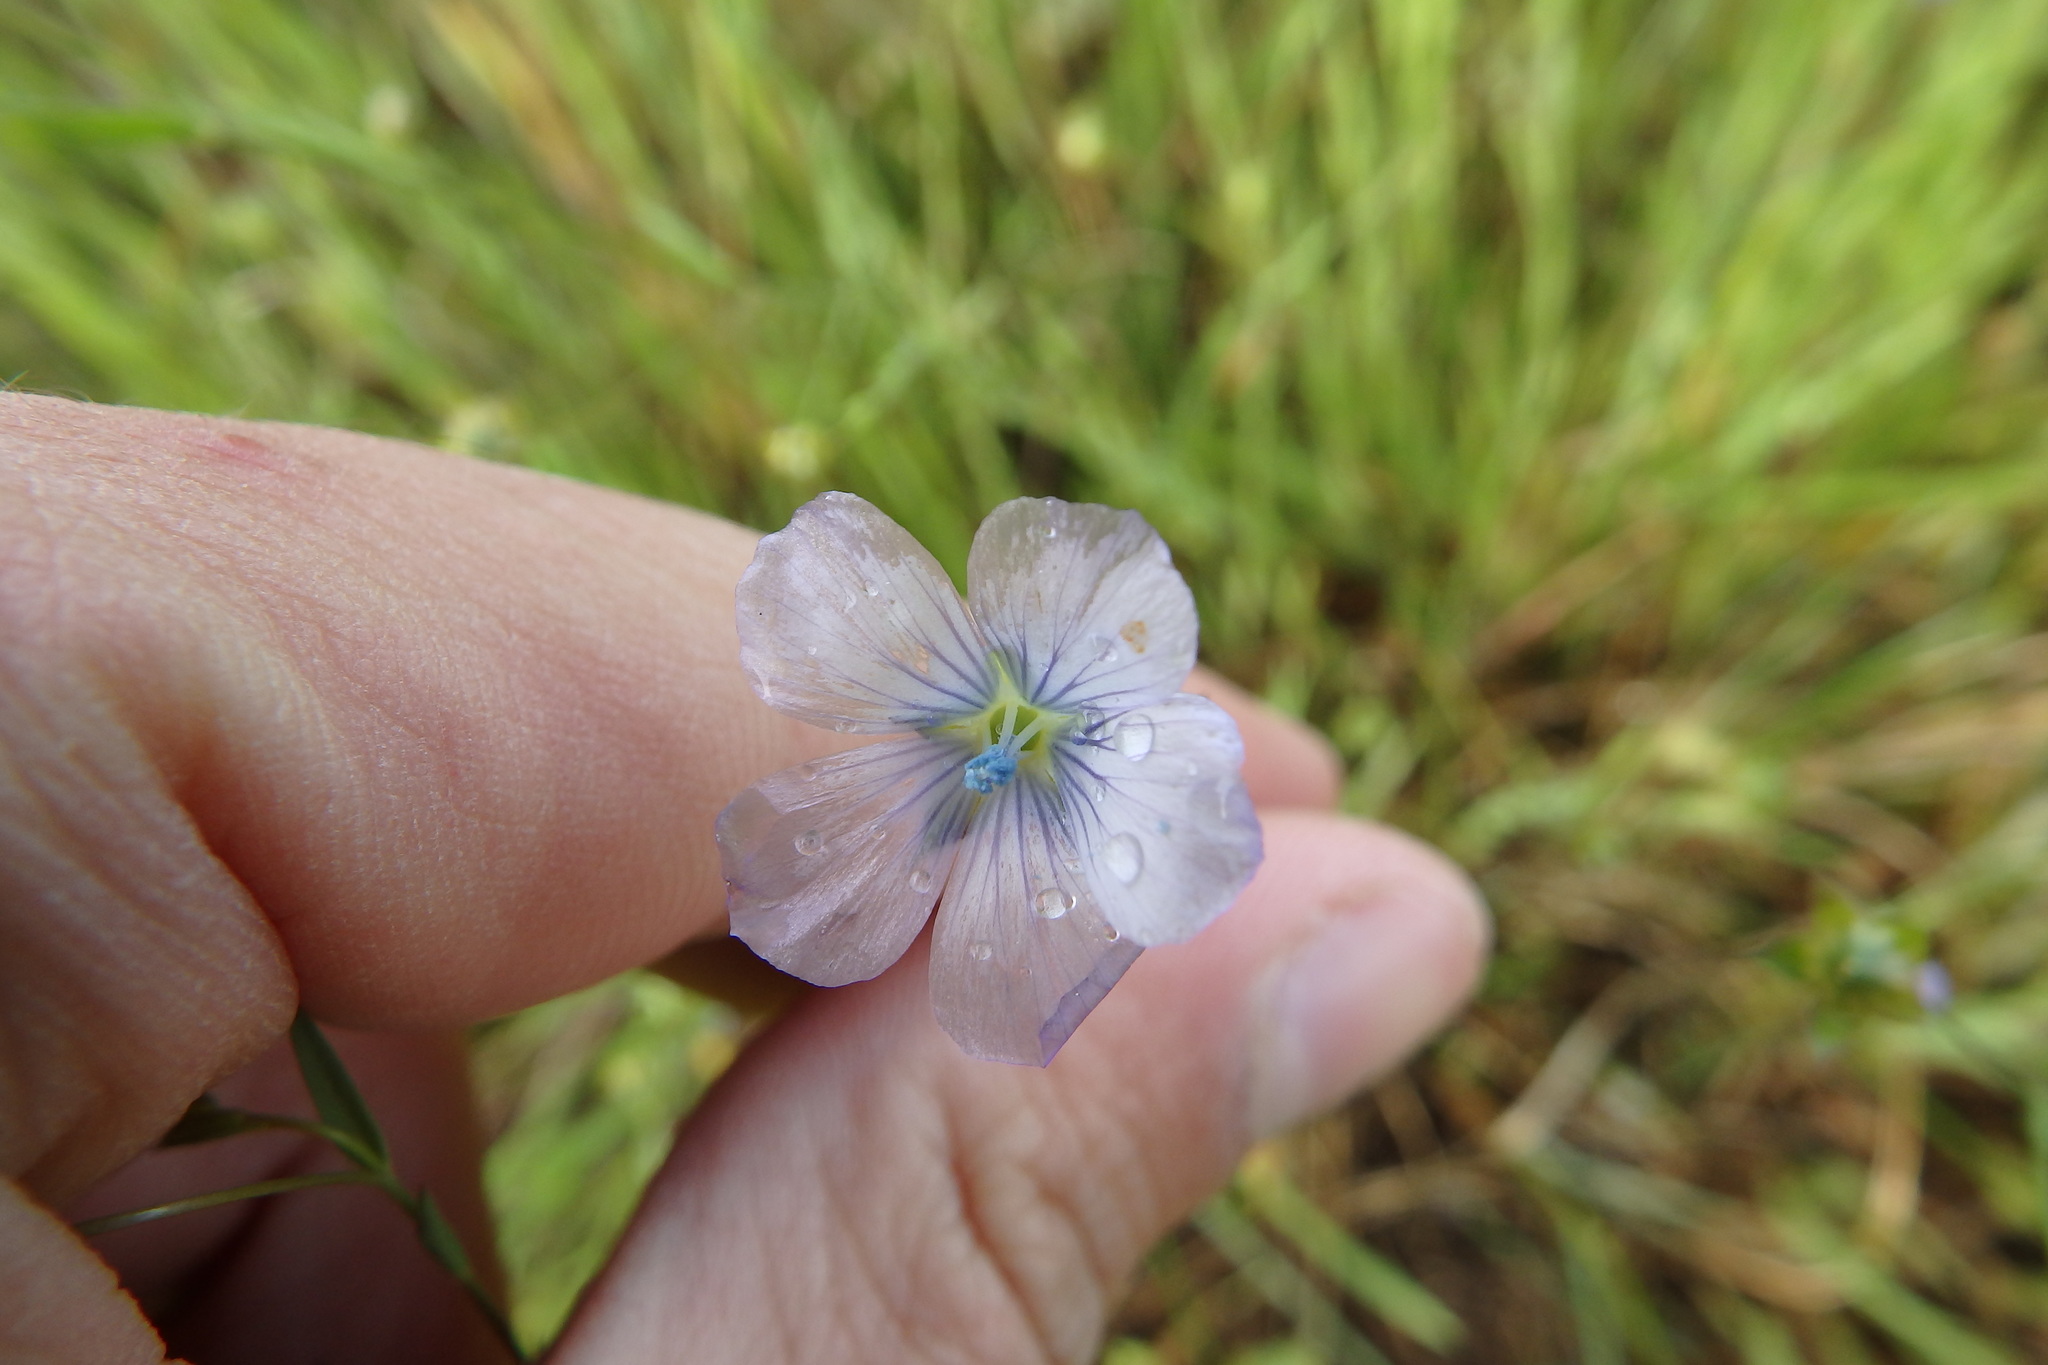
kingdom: Plantae
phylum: Tracheophyta
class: Magnoliopsida
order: Malpighiales
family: Linaceae
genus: Linum
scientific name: Linum bienne
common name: Pale flax
